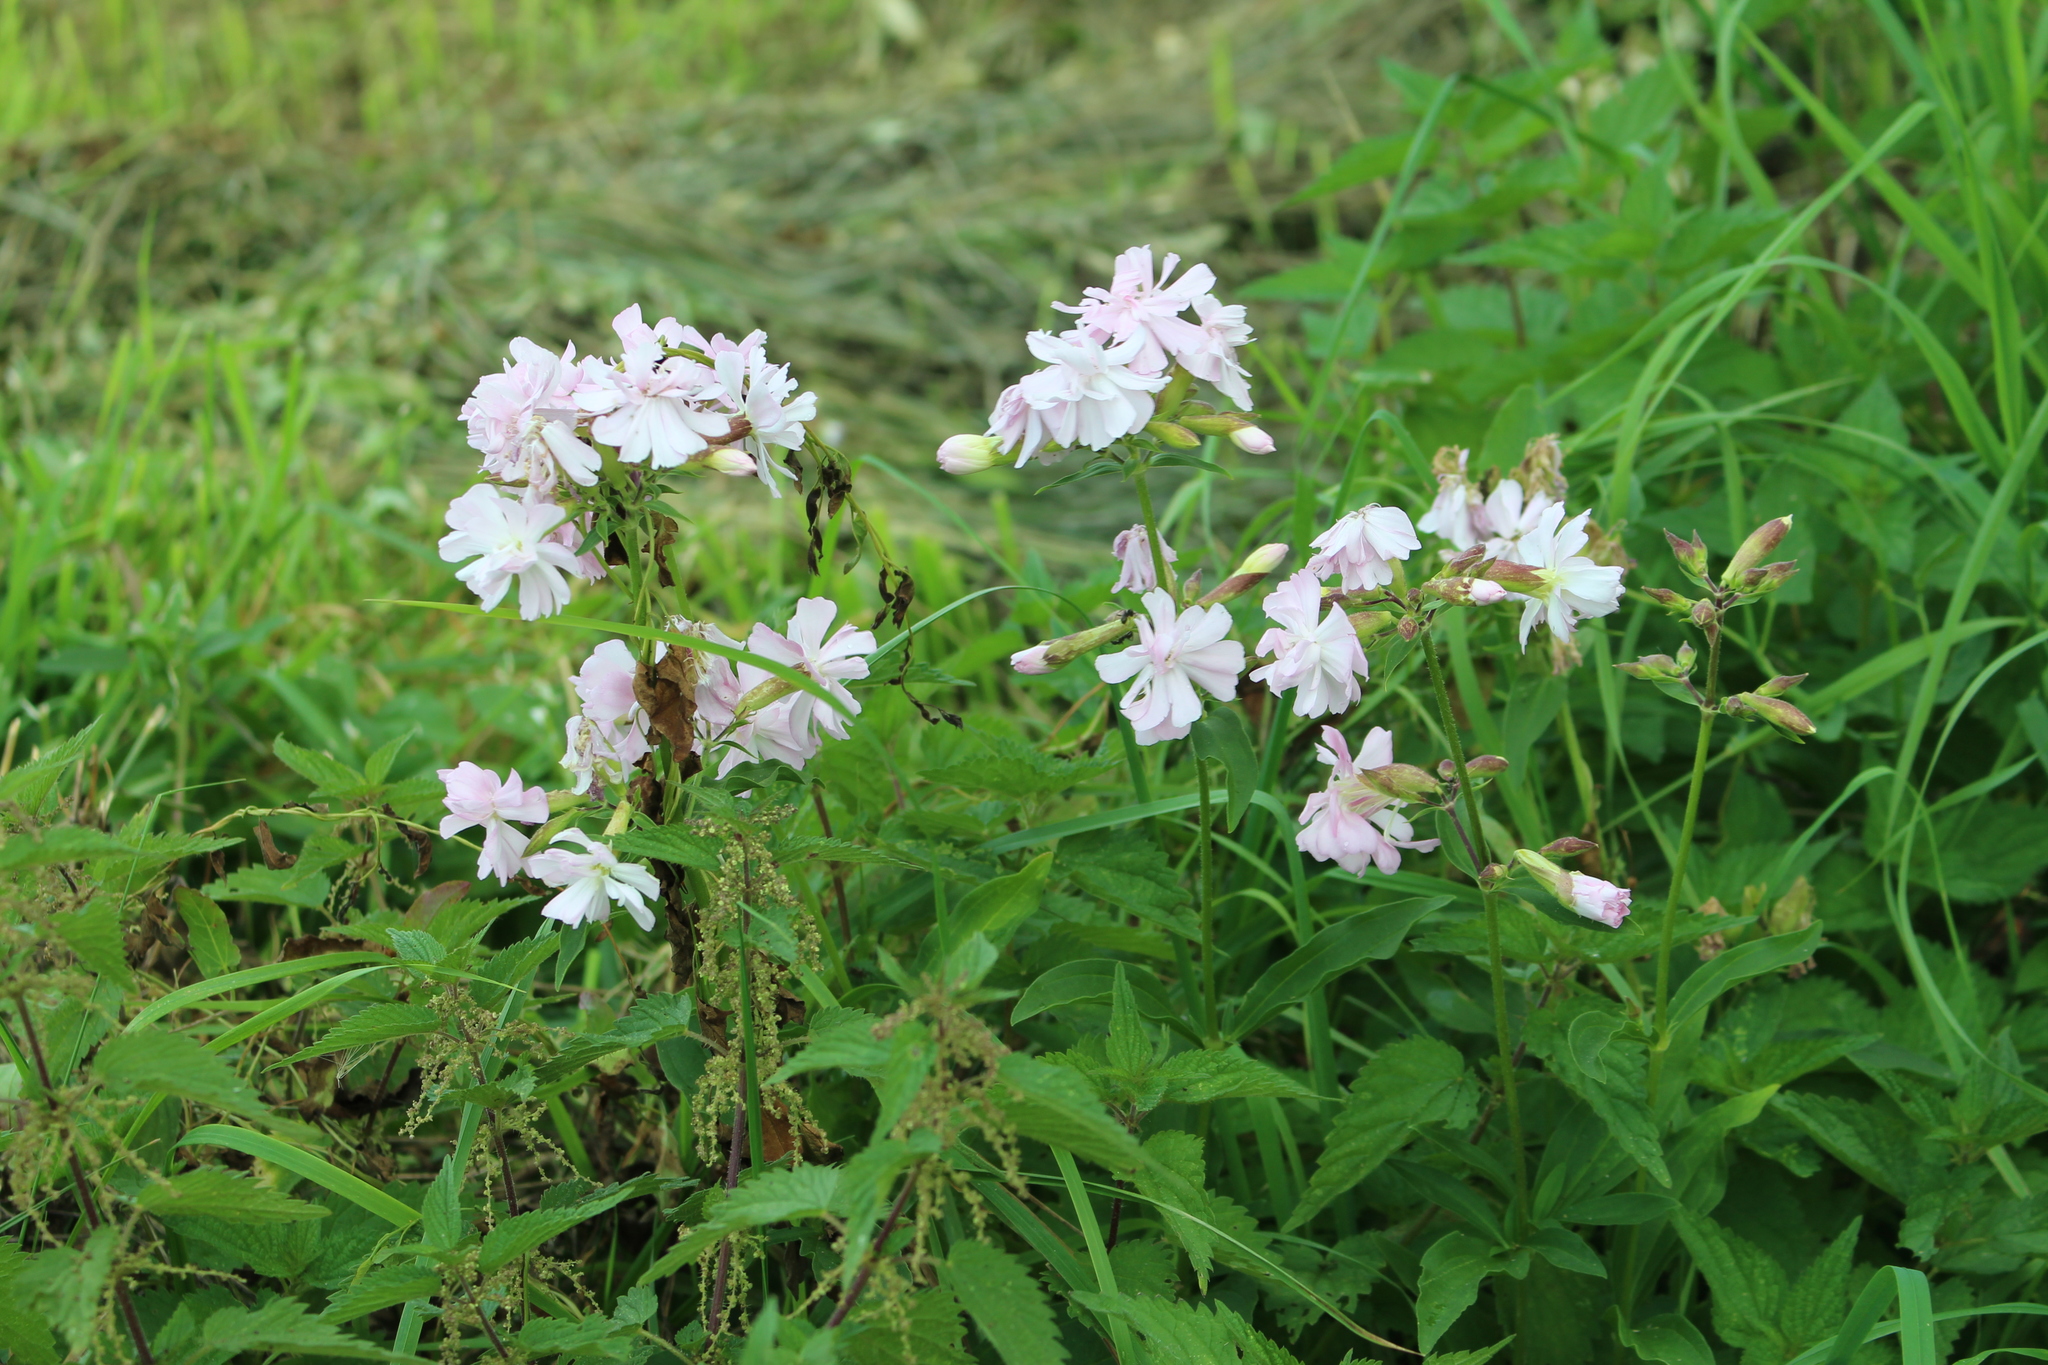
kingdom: Plantae
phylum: Tracheophyta
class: Magnoliopsida
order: Caryophyllales
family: Caryophyllaceae
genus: Saponaria
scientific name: Saponaria officinalis
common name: Soapwort
